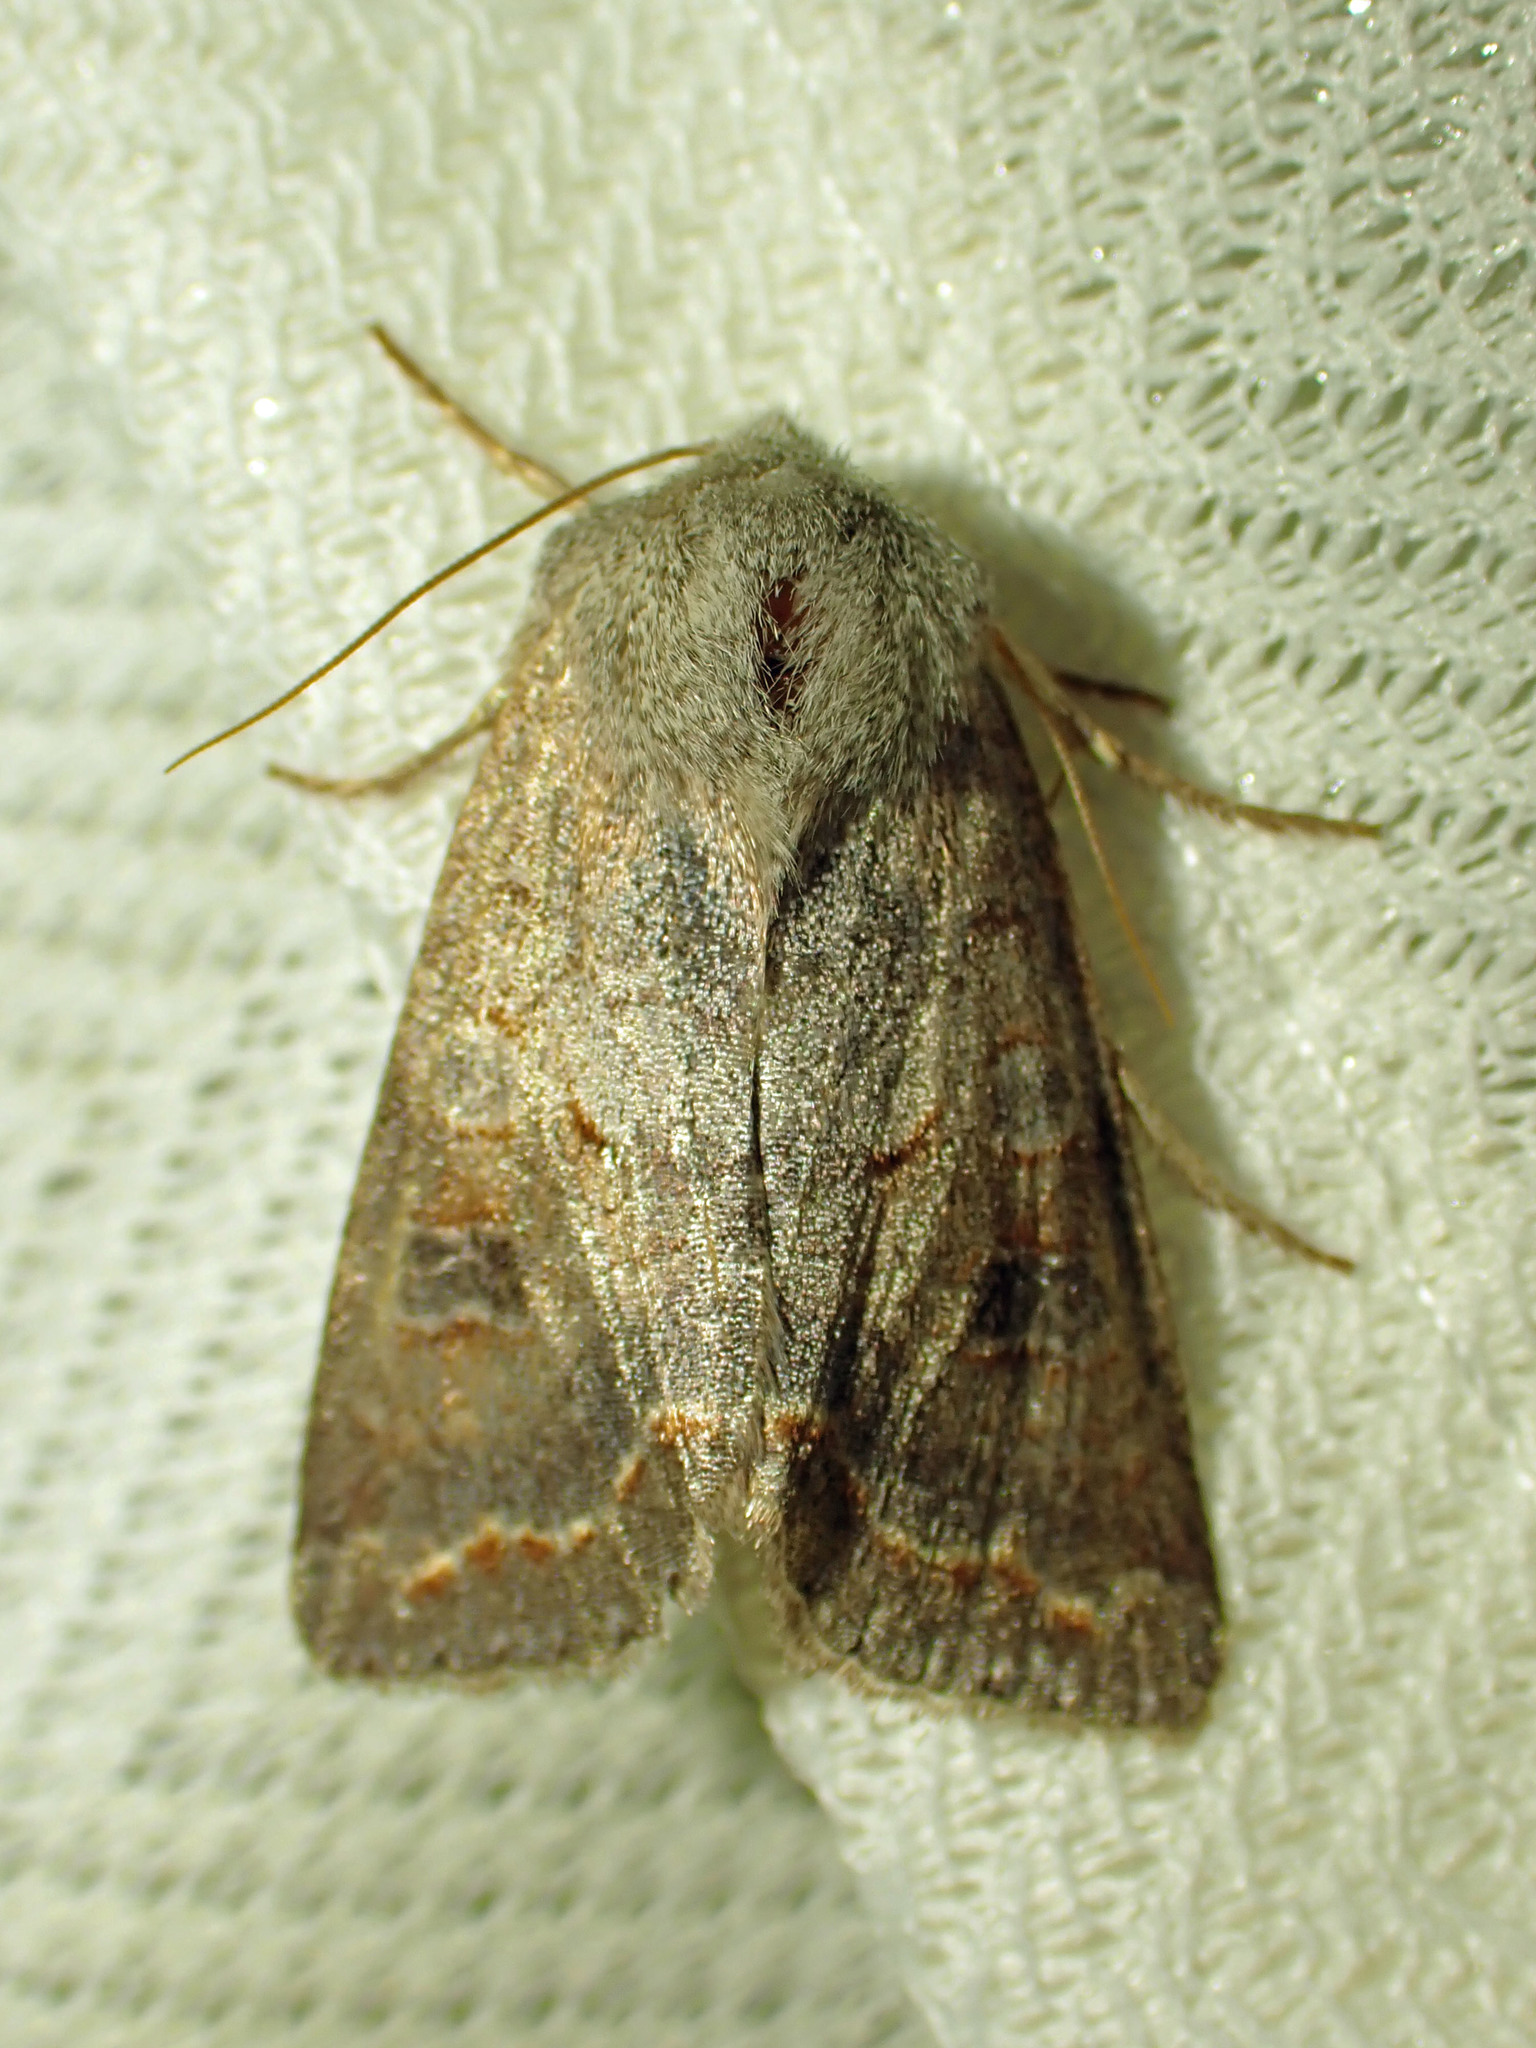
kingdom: Animalia
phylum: Arthropoda
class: Insecta
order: Lepidoptera
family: Noctuidae
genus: Orthosia
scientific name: Orthosia revicta
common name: Rusty whitesided caterpillar
